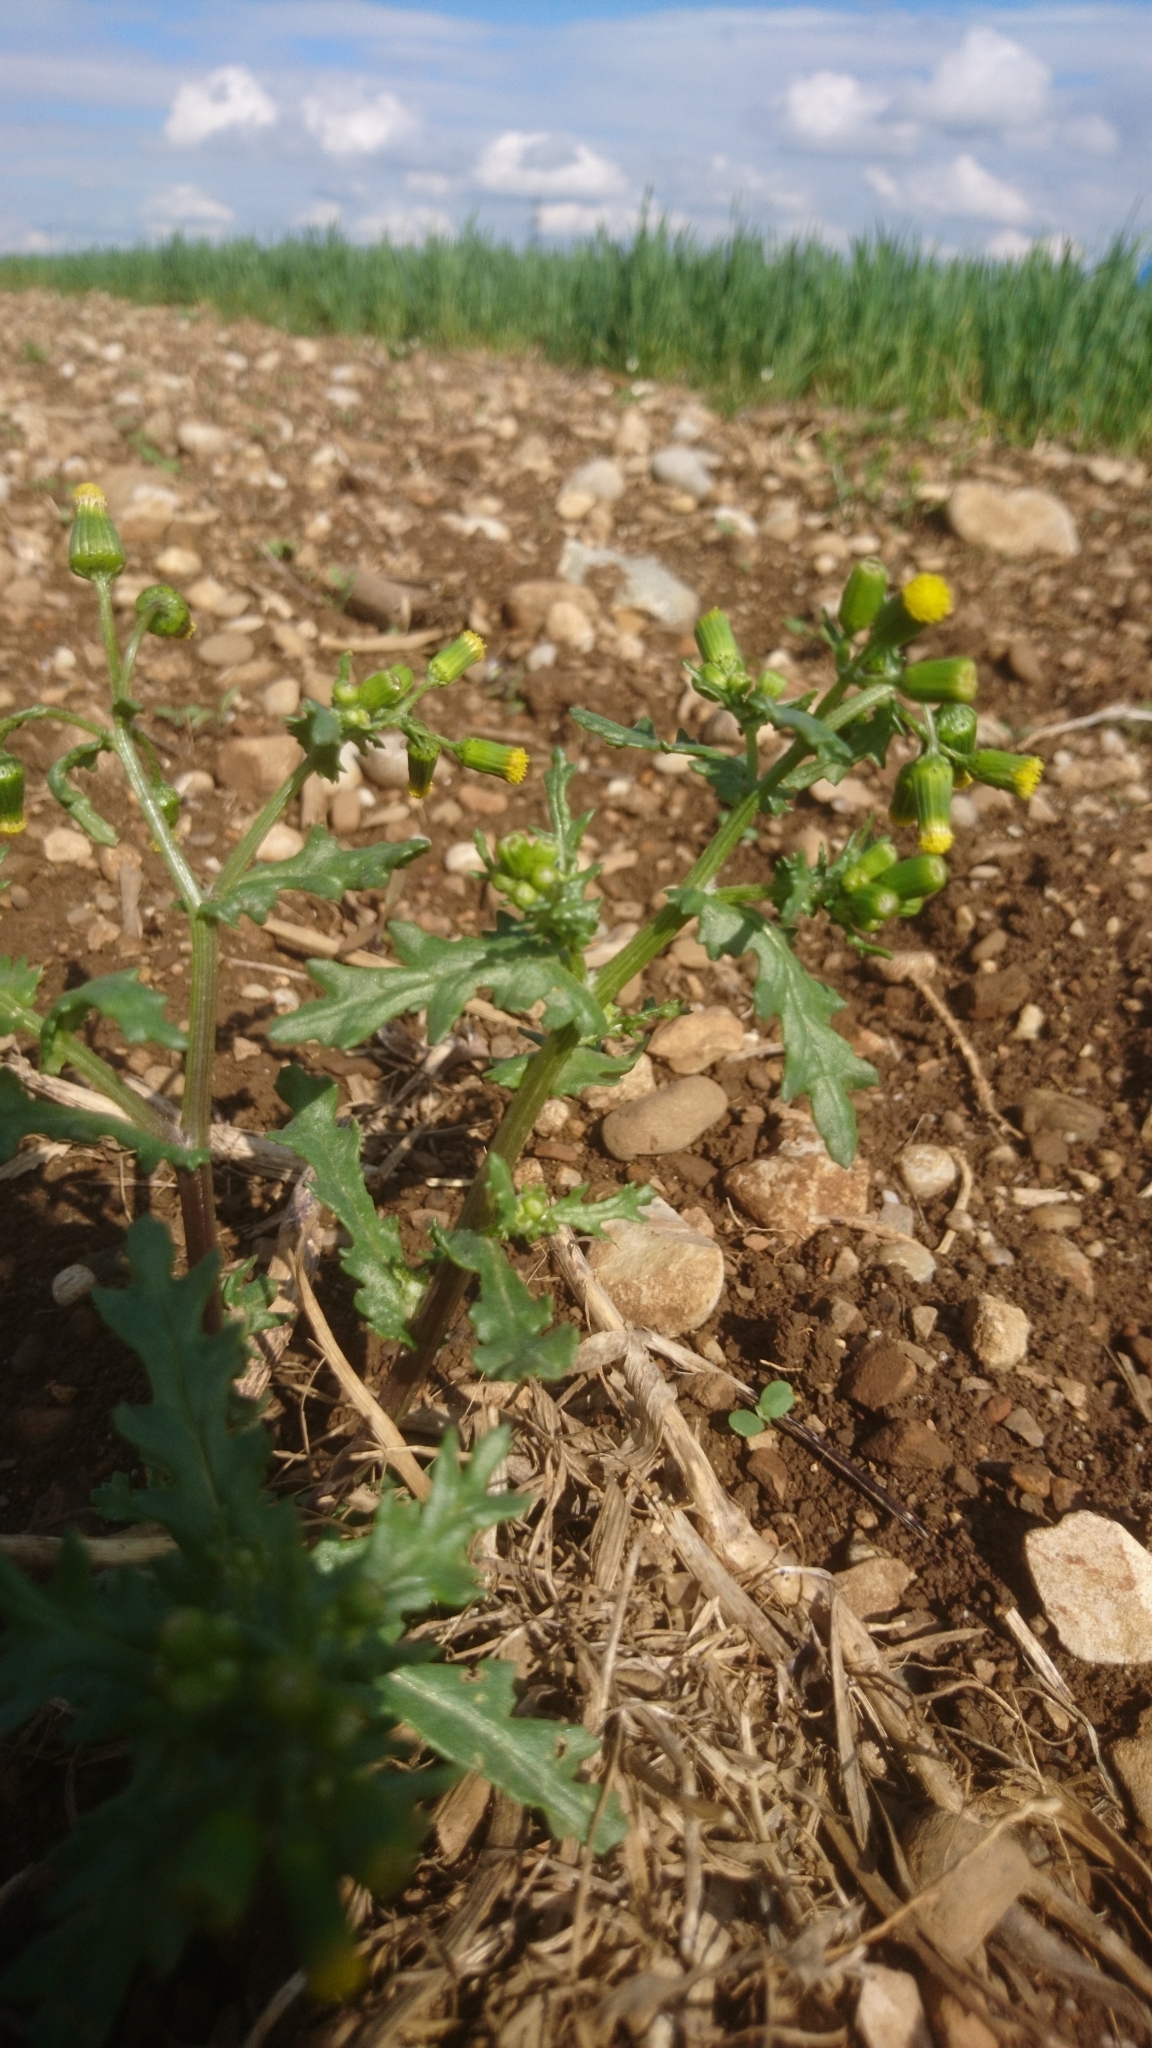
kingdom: Plantae
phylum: Tracheophyta
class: Magnoliopsida
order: Asterales
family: Asteraceae
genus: Senecio
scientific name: Senecio vulgaris
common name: Old-man-in-the-spring
